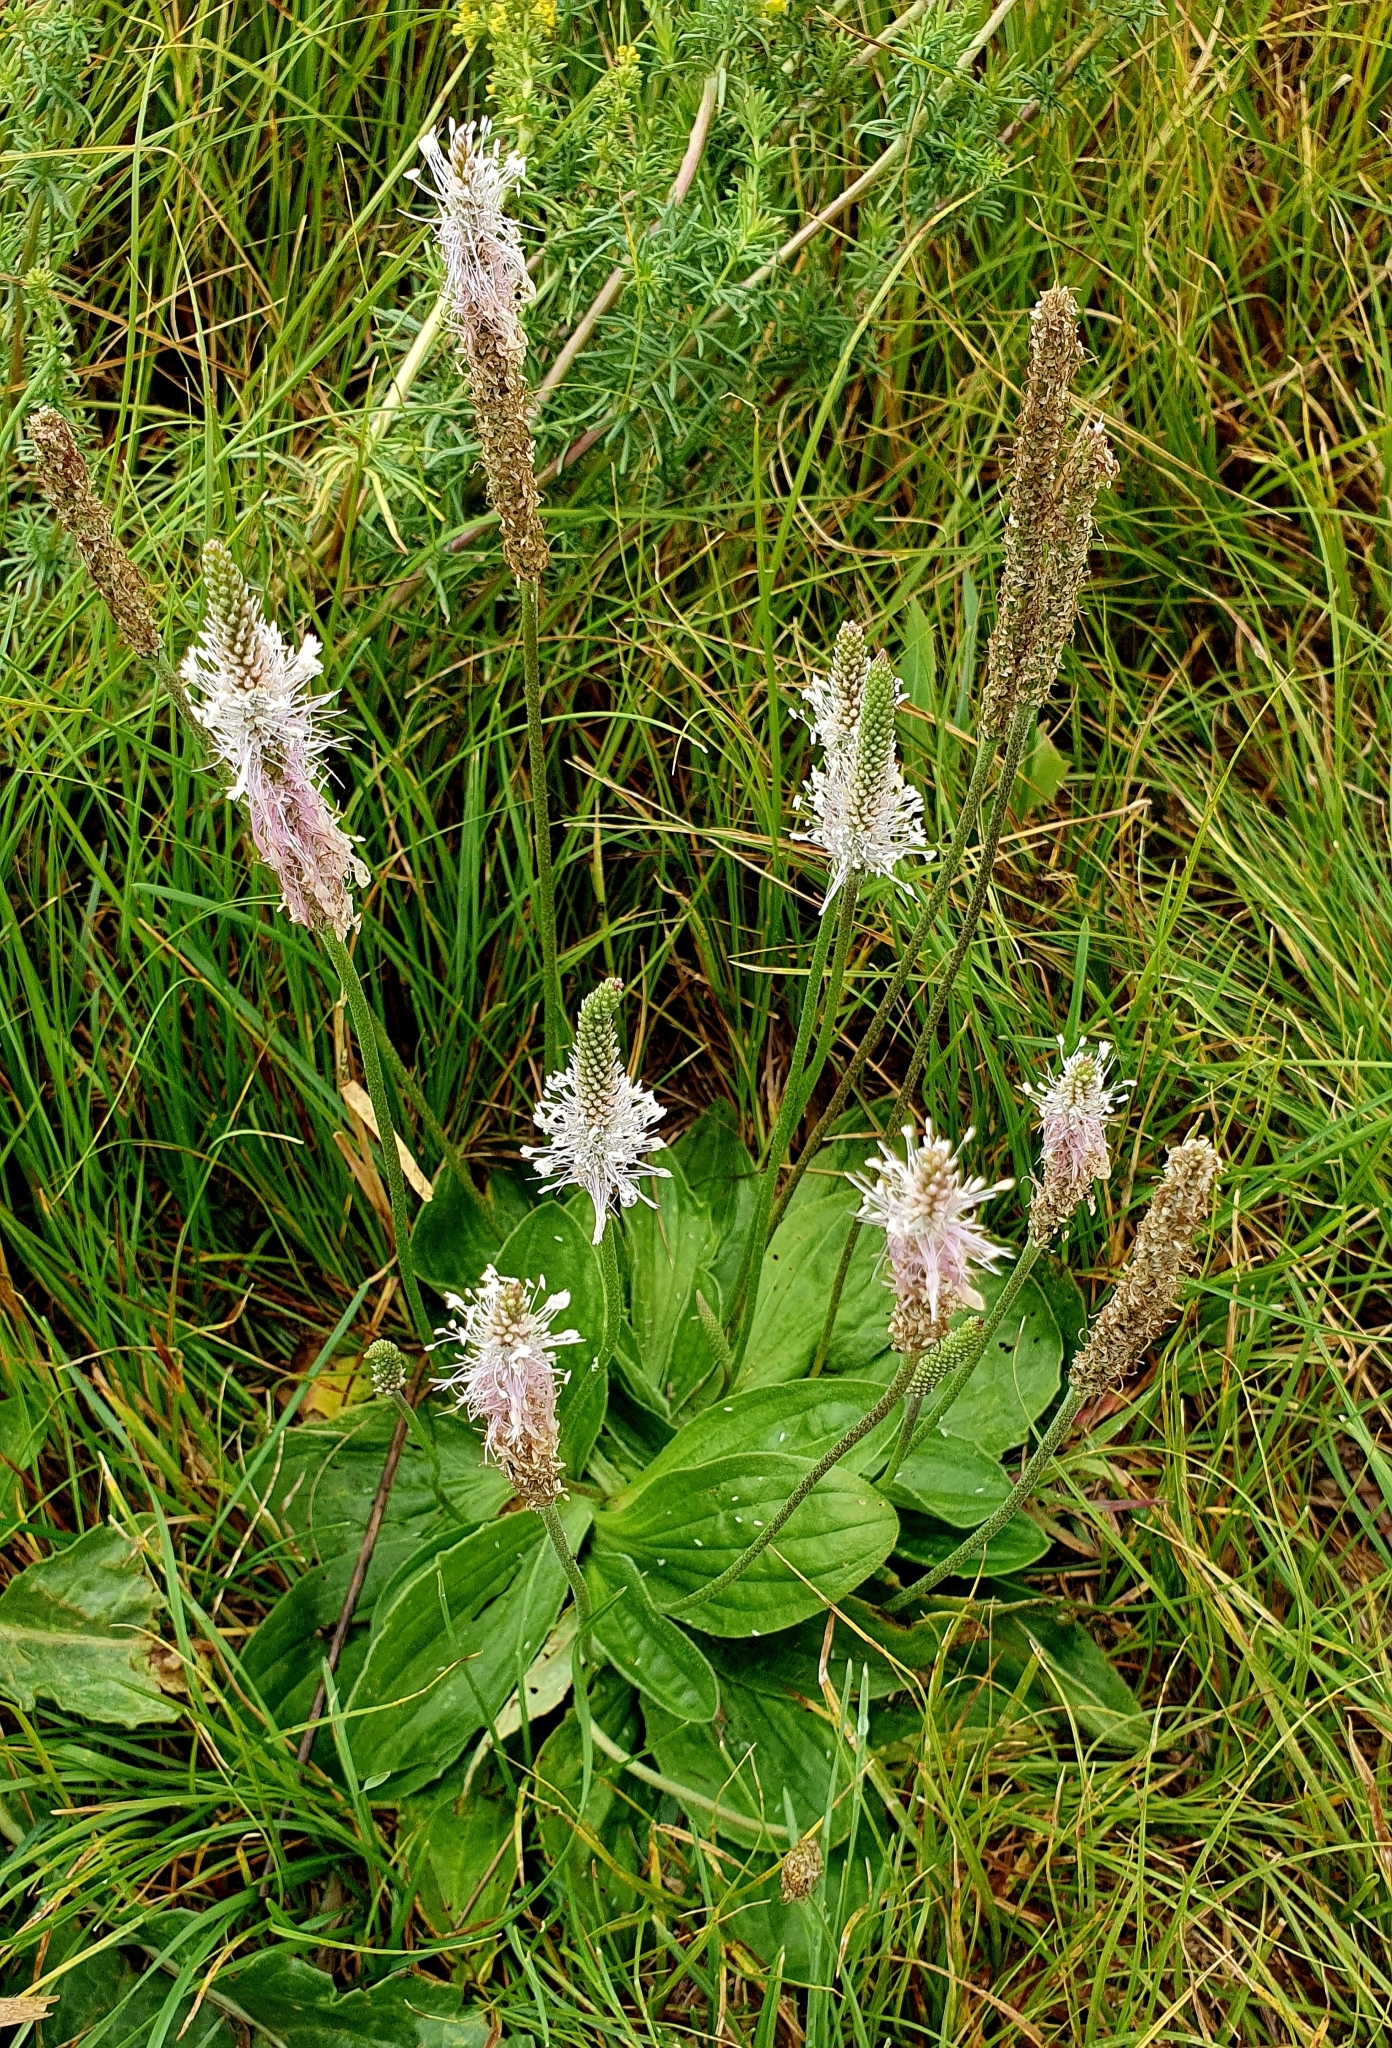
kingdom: Plantae
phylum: Tracheophyta
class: Magnoliopsida
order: Lamiales
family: Plantaginaceae
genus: Plantago
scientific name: Plantago media
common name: Hoary plantain
